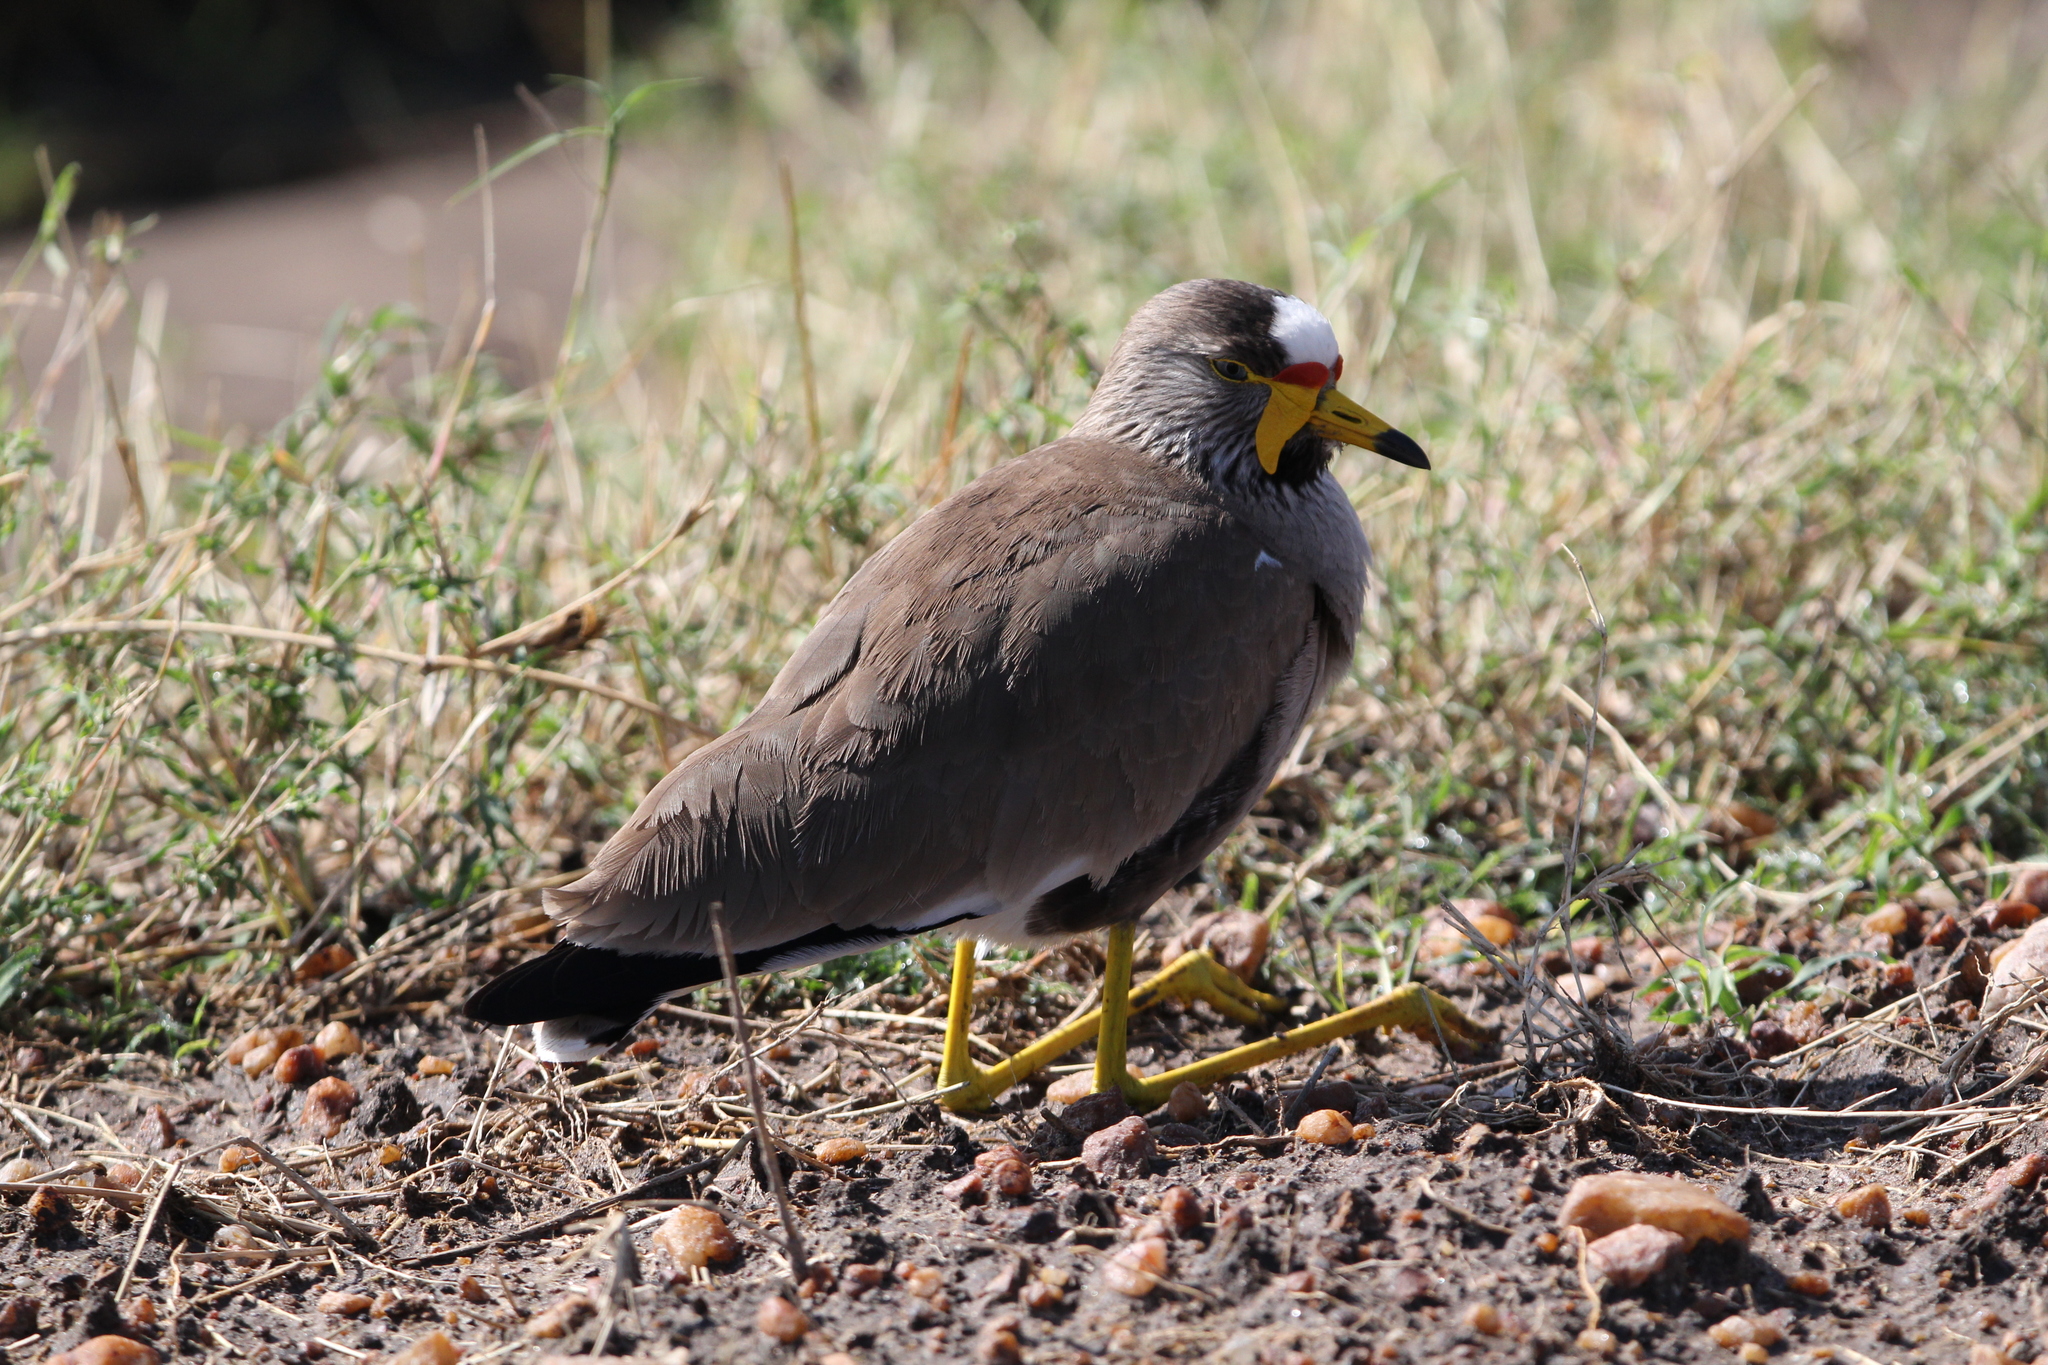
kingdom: Animalia
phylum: Chordata
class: Aves
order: Charadriiformes
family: Charadriidae
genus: Vanellus
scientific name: Vanellus senegallus
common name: African wattled lapwing
